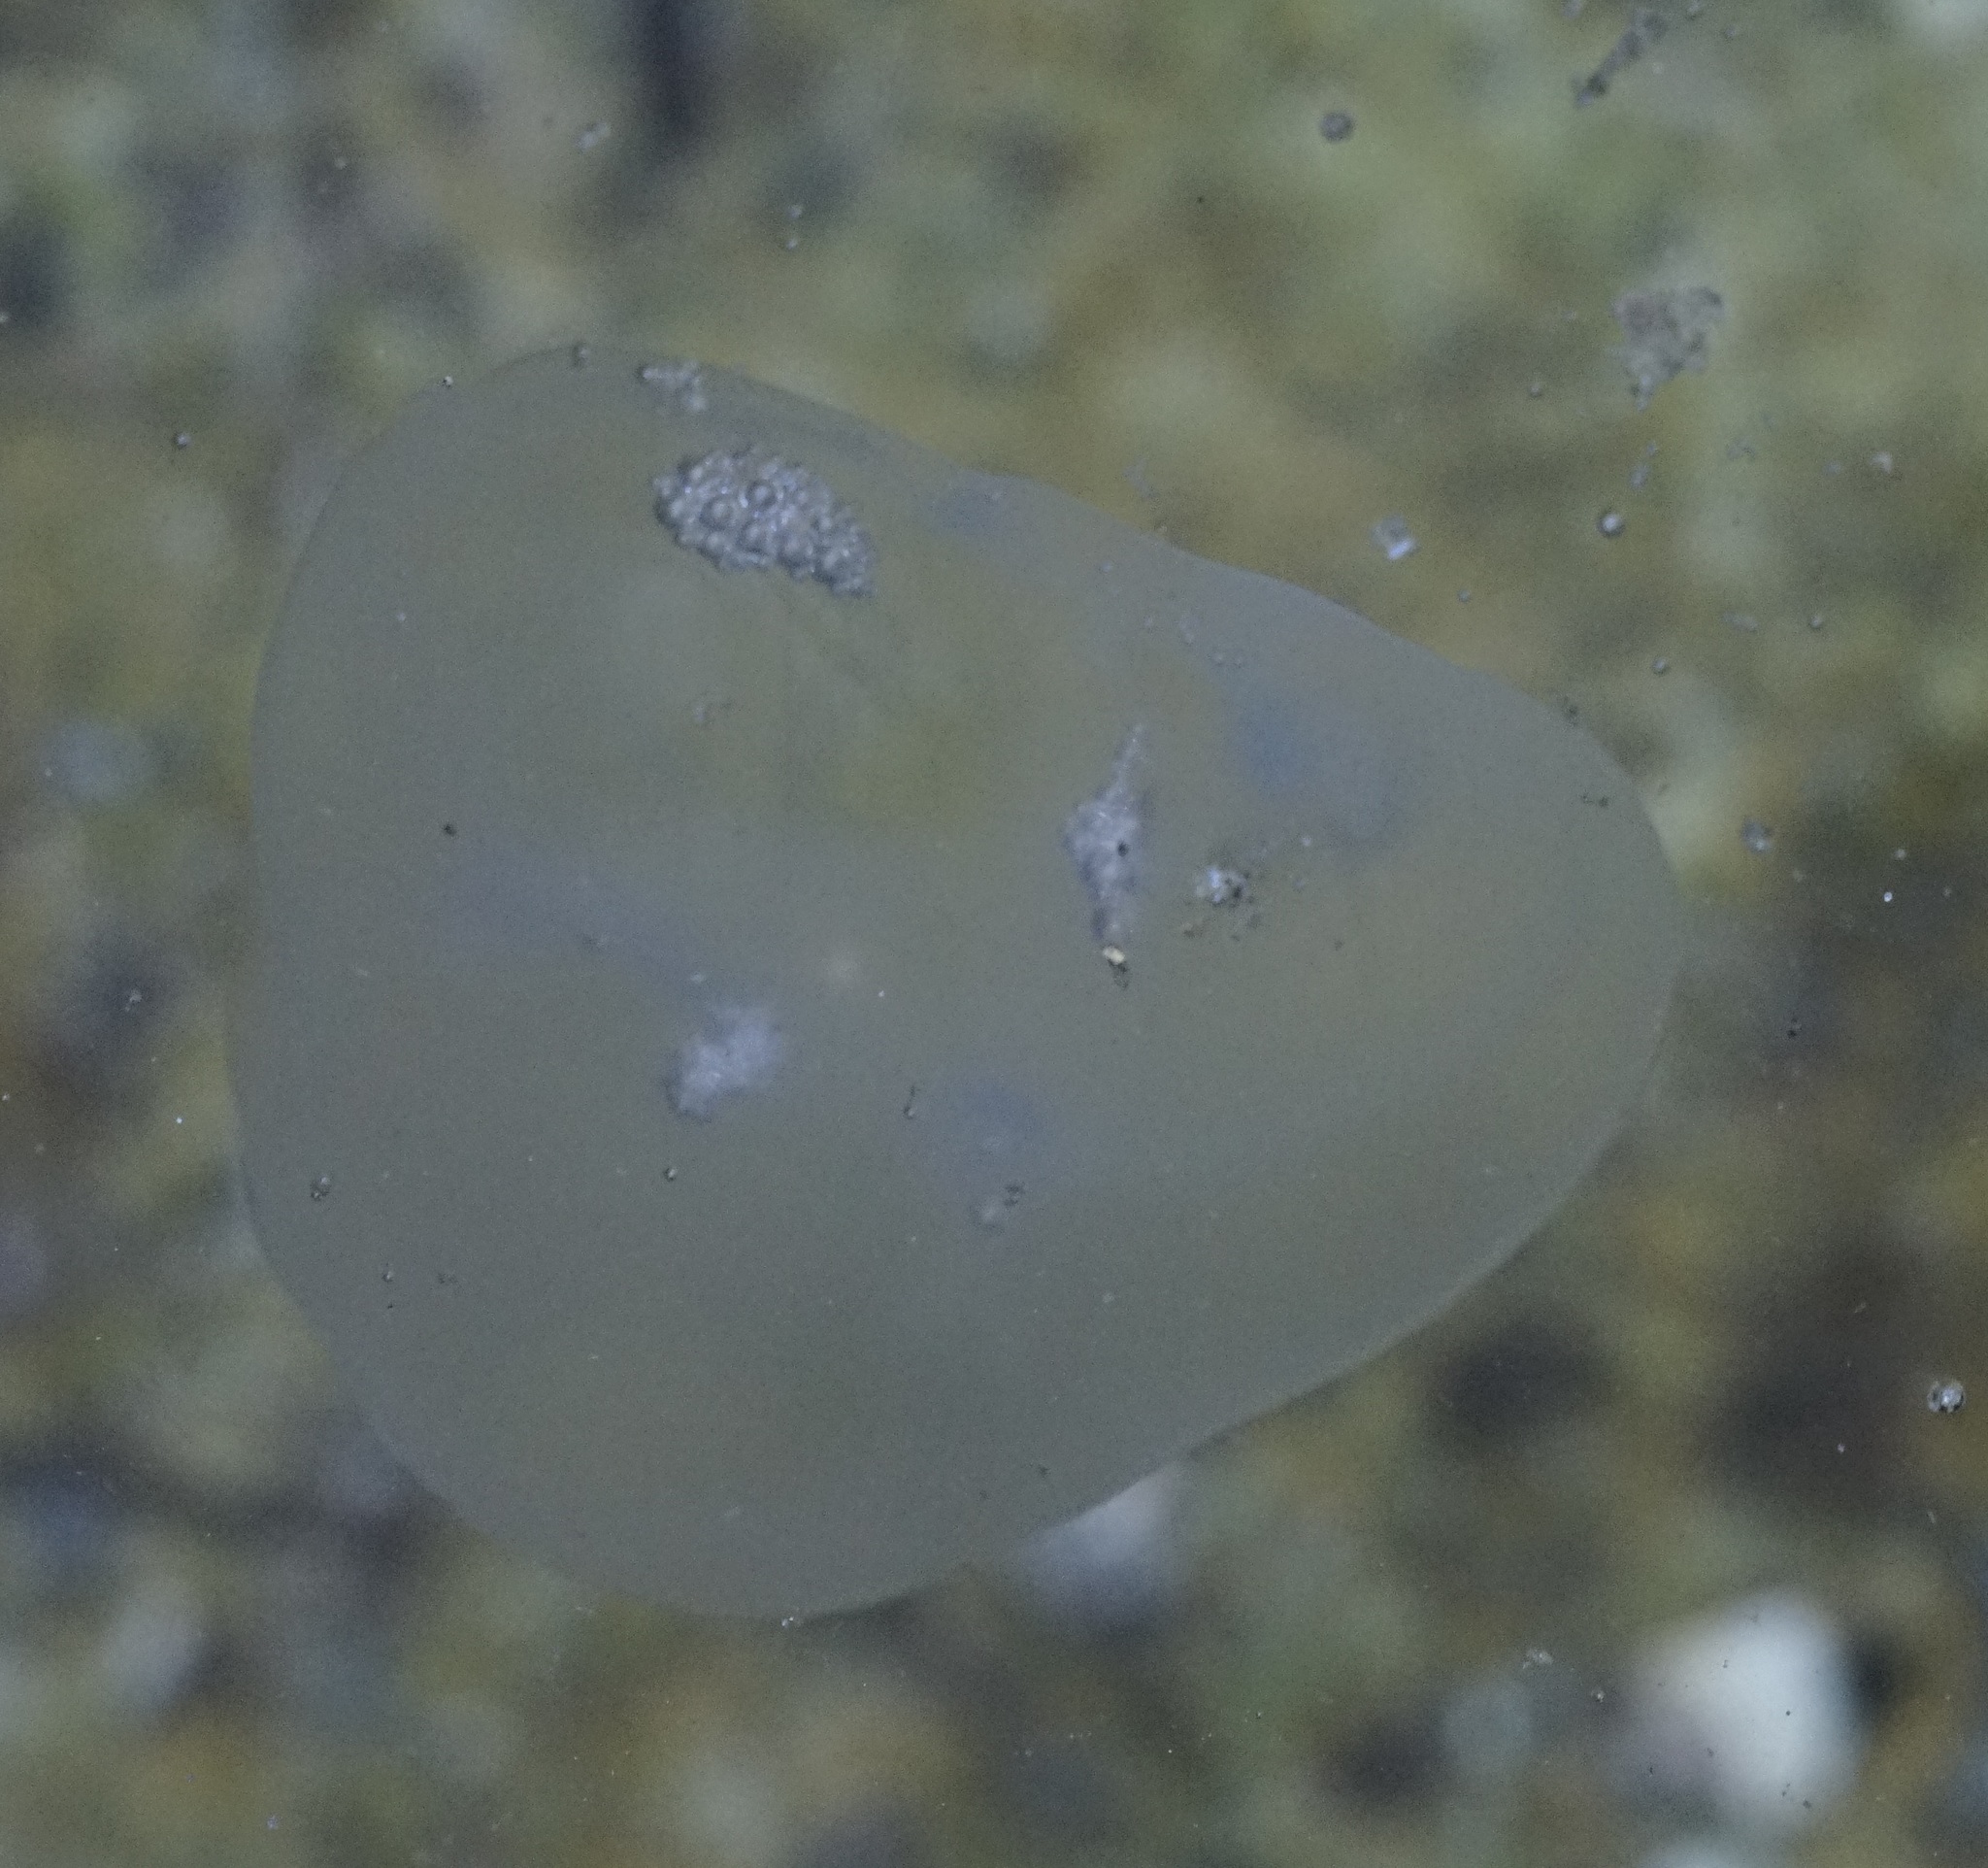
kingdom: Animalia
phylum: Cnidaria
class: Scyphozoa
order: Semaeostomeae
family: Ulmaridae
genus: Aurelia
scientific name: Aurelia
